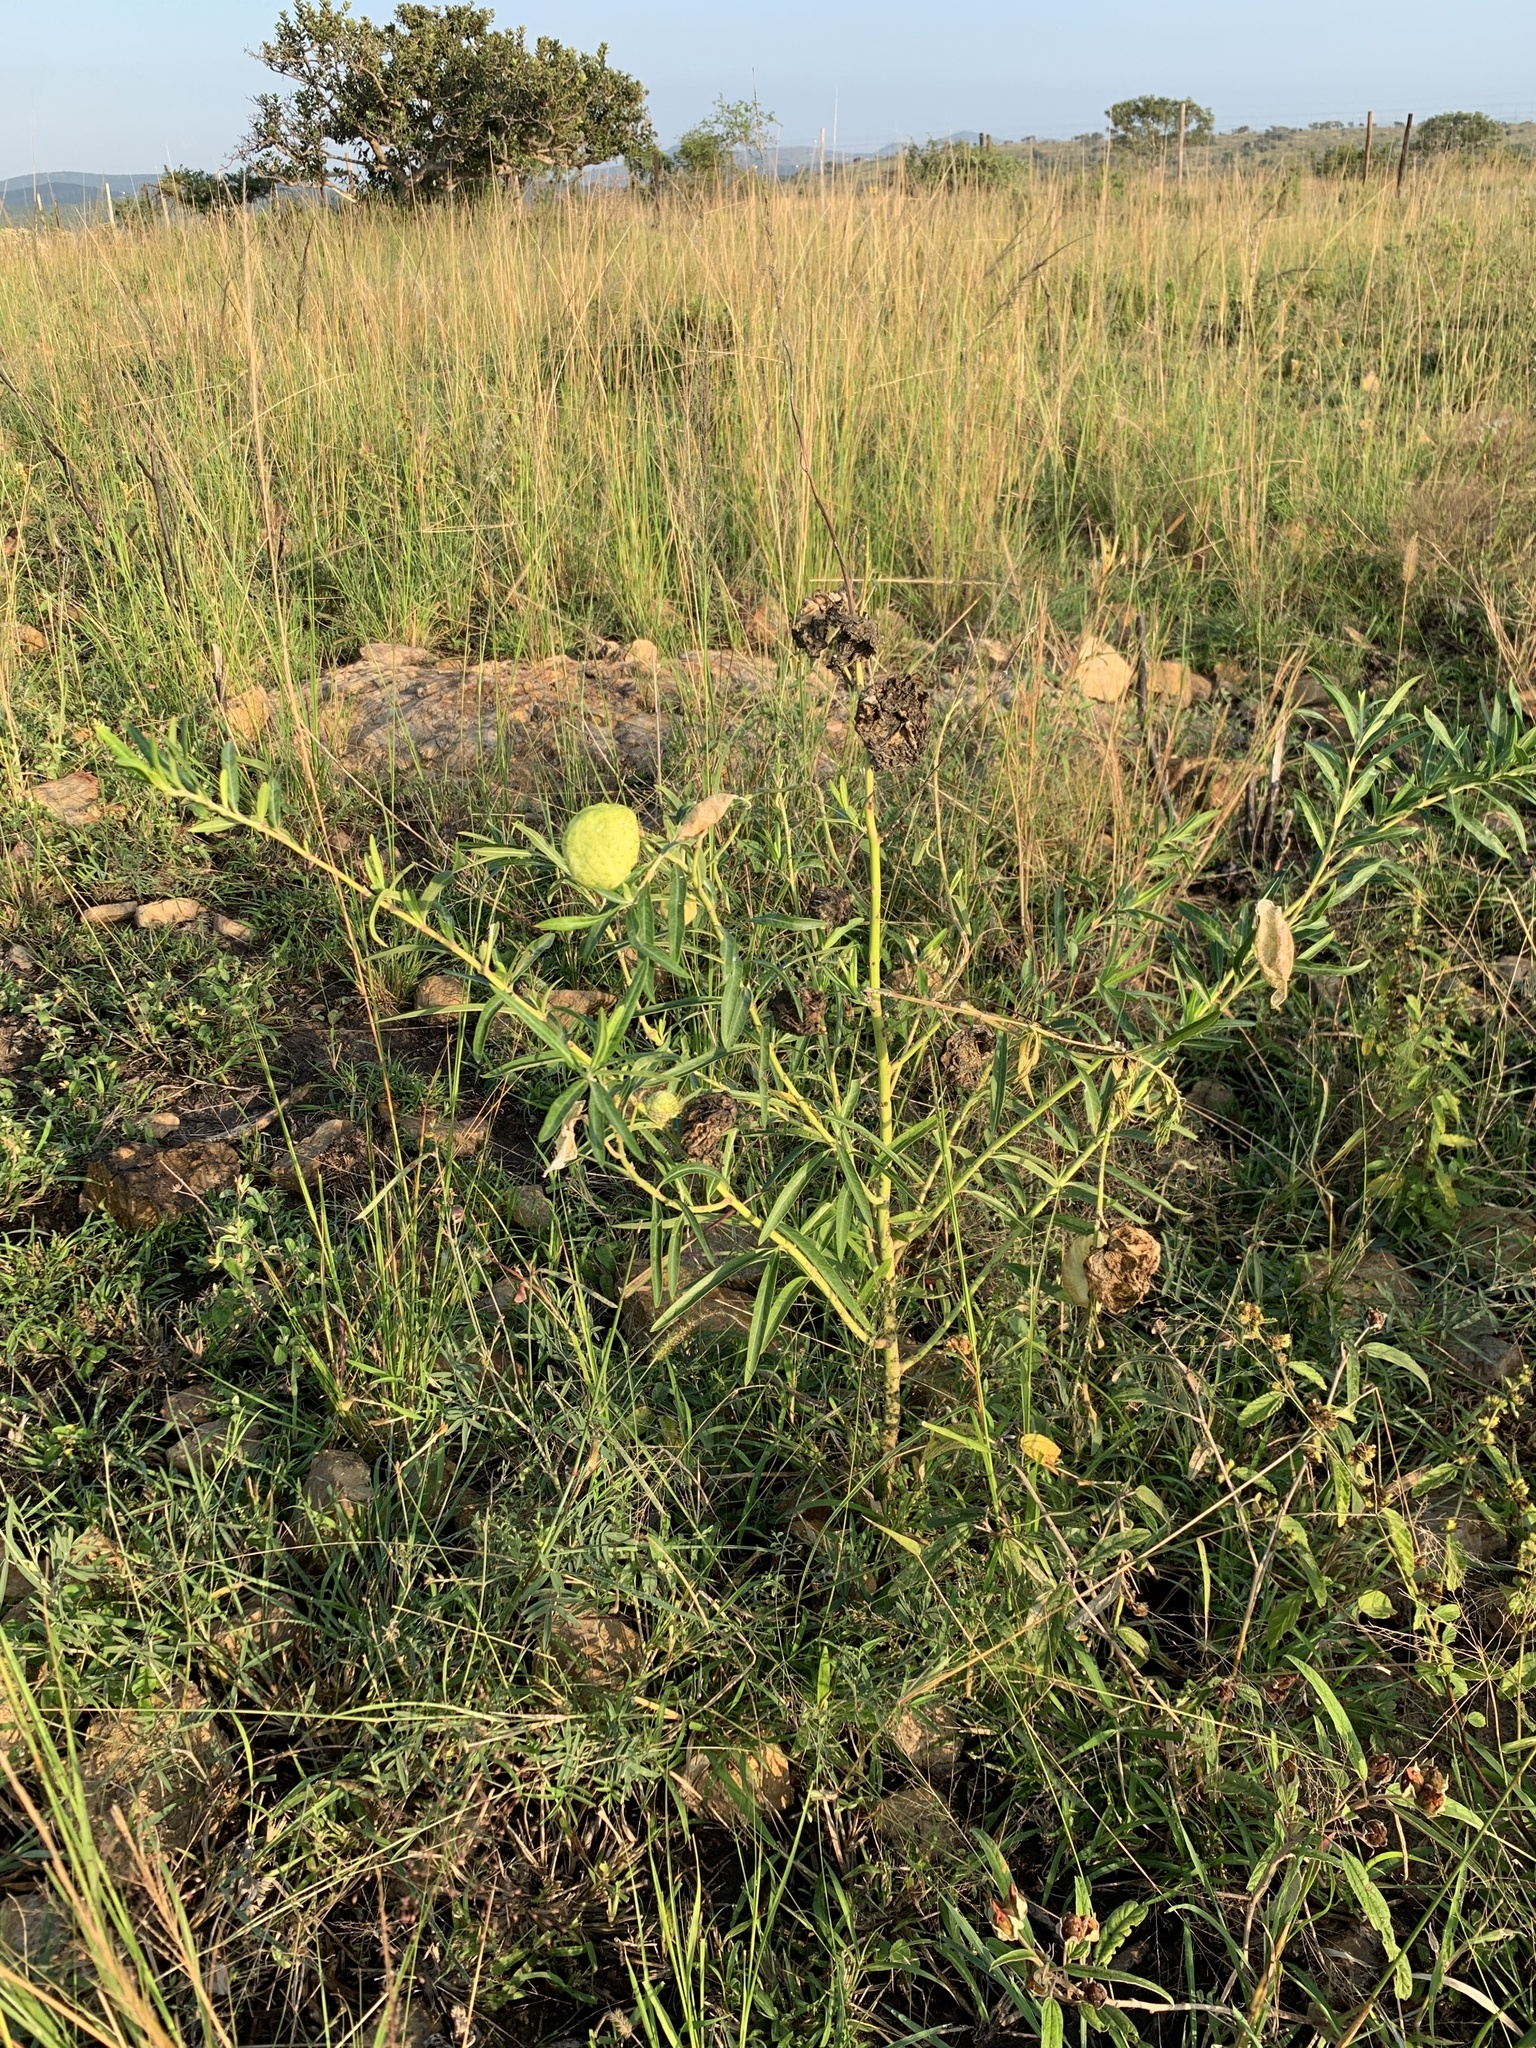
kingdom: Plantae
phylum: Tracheophyta
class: Magnoliopsida
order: Gentianales
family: Apocynaceae
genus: Gomphocarpus
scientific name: Gomphocarpus physocarpus
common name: Balloon cotton bush
